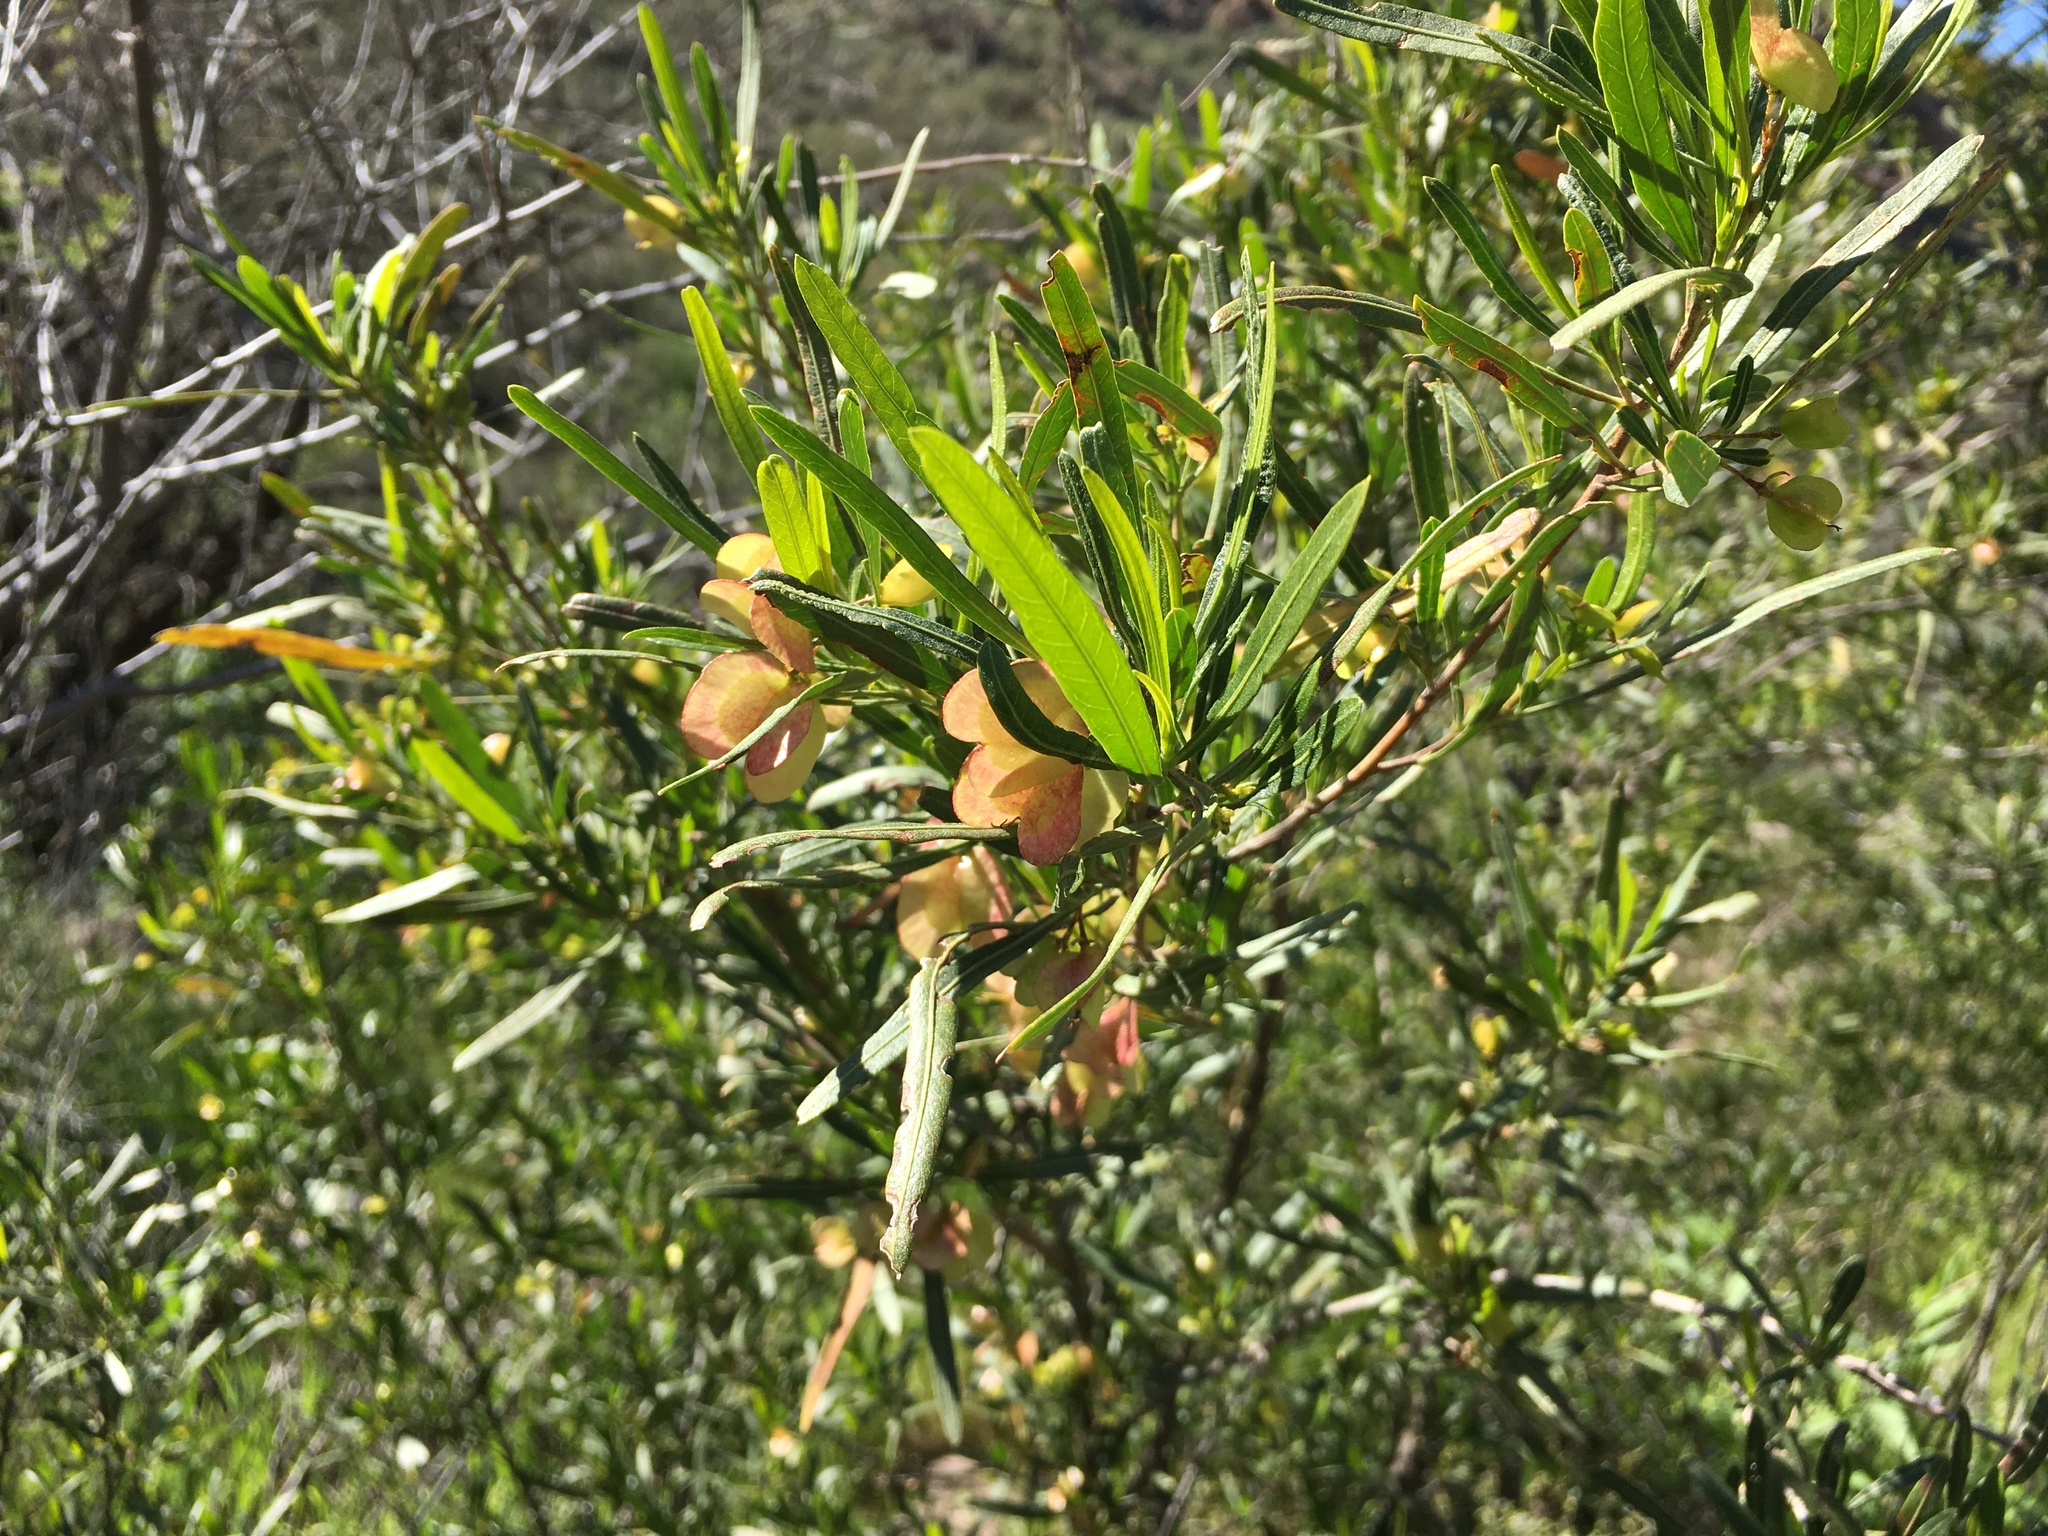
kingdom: Plantae
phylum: Tracheophyta
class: Magnoliopsida
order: Sapindales
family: Sapindaceae
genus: Dodonaea
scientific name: Dodonaea viscosa
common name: Hopbush
